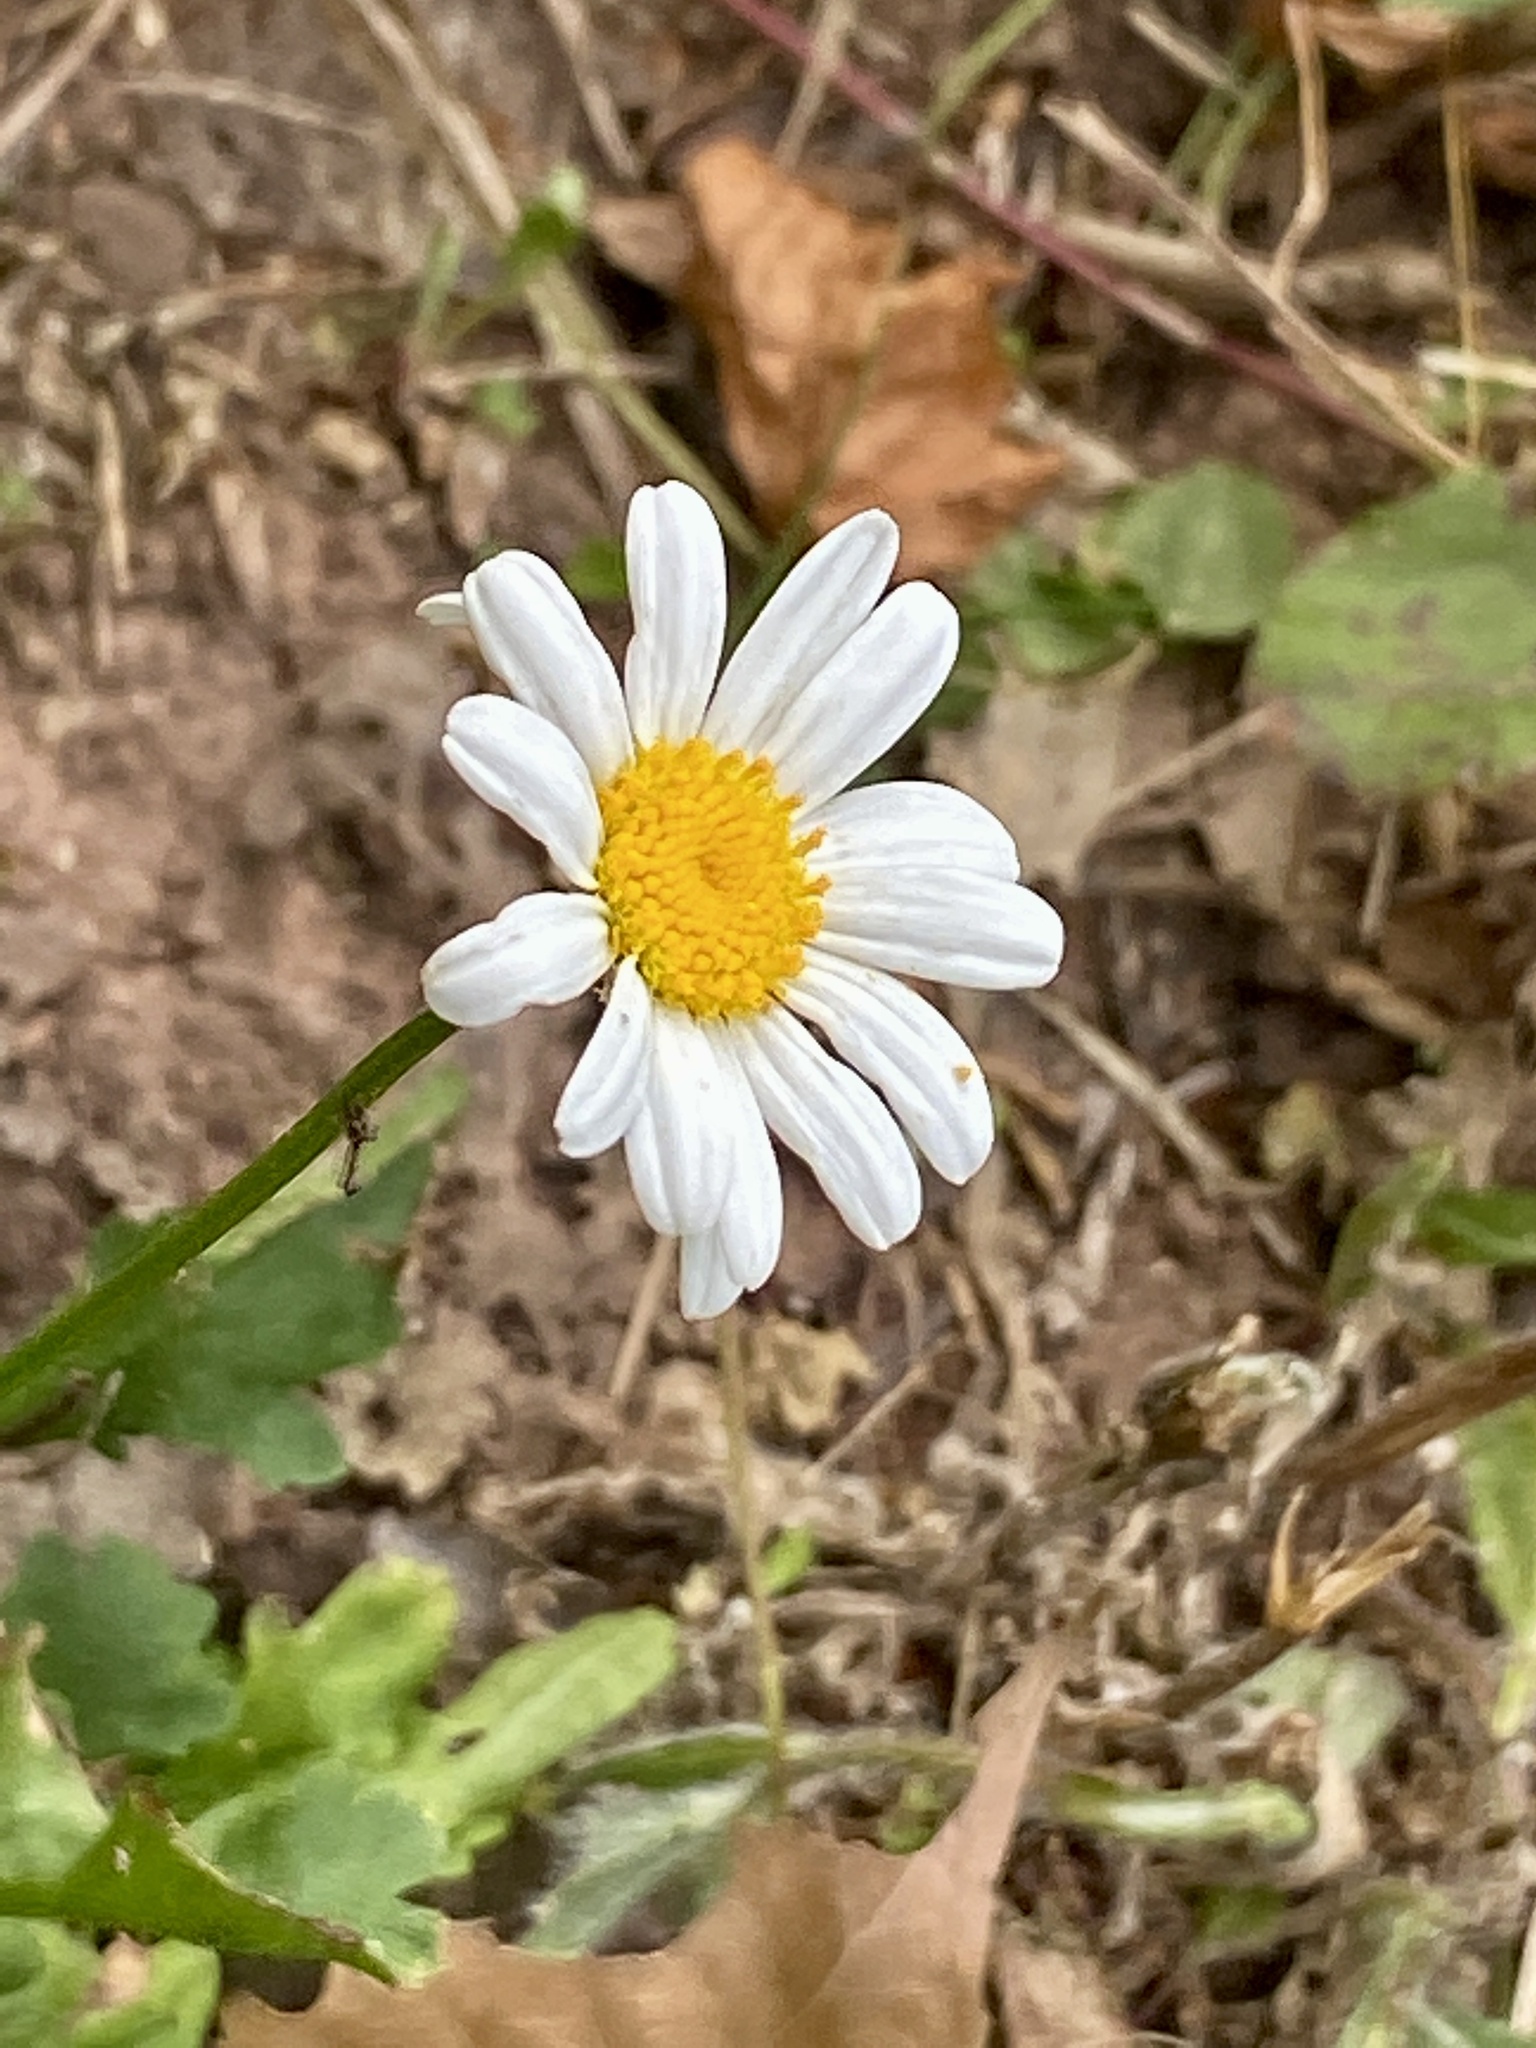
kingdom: Plantae
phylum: Tracheophyta
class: Magnoliopsida
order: Asterales
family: Asteraceae
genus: Leucanthemum
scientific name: Leucanthemum vulgare
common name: Oxeye daisy
